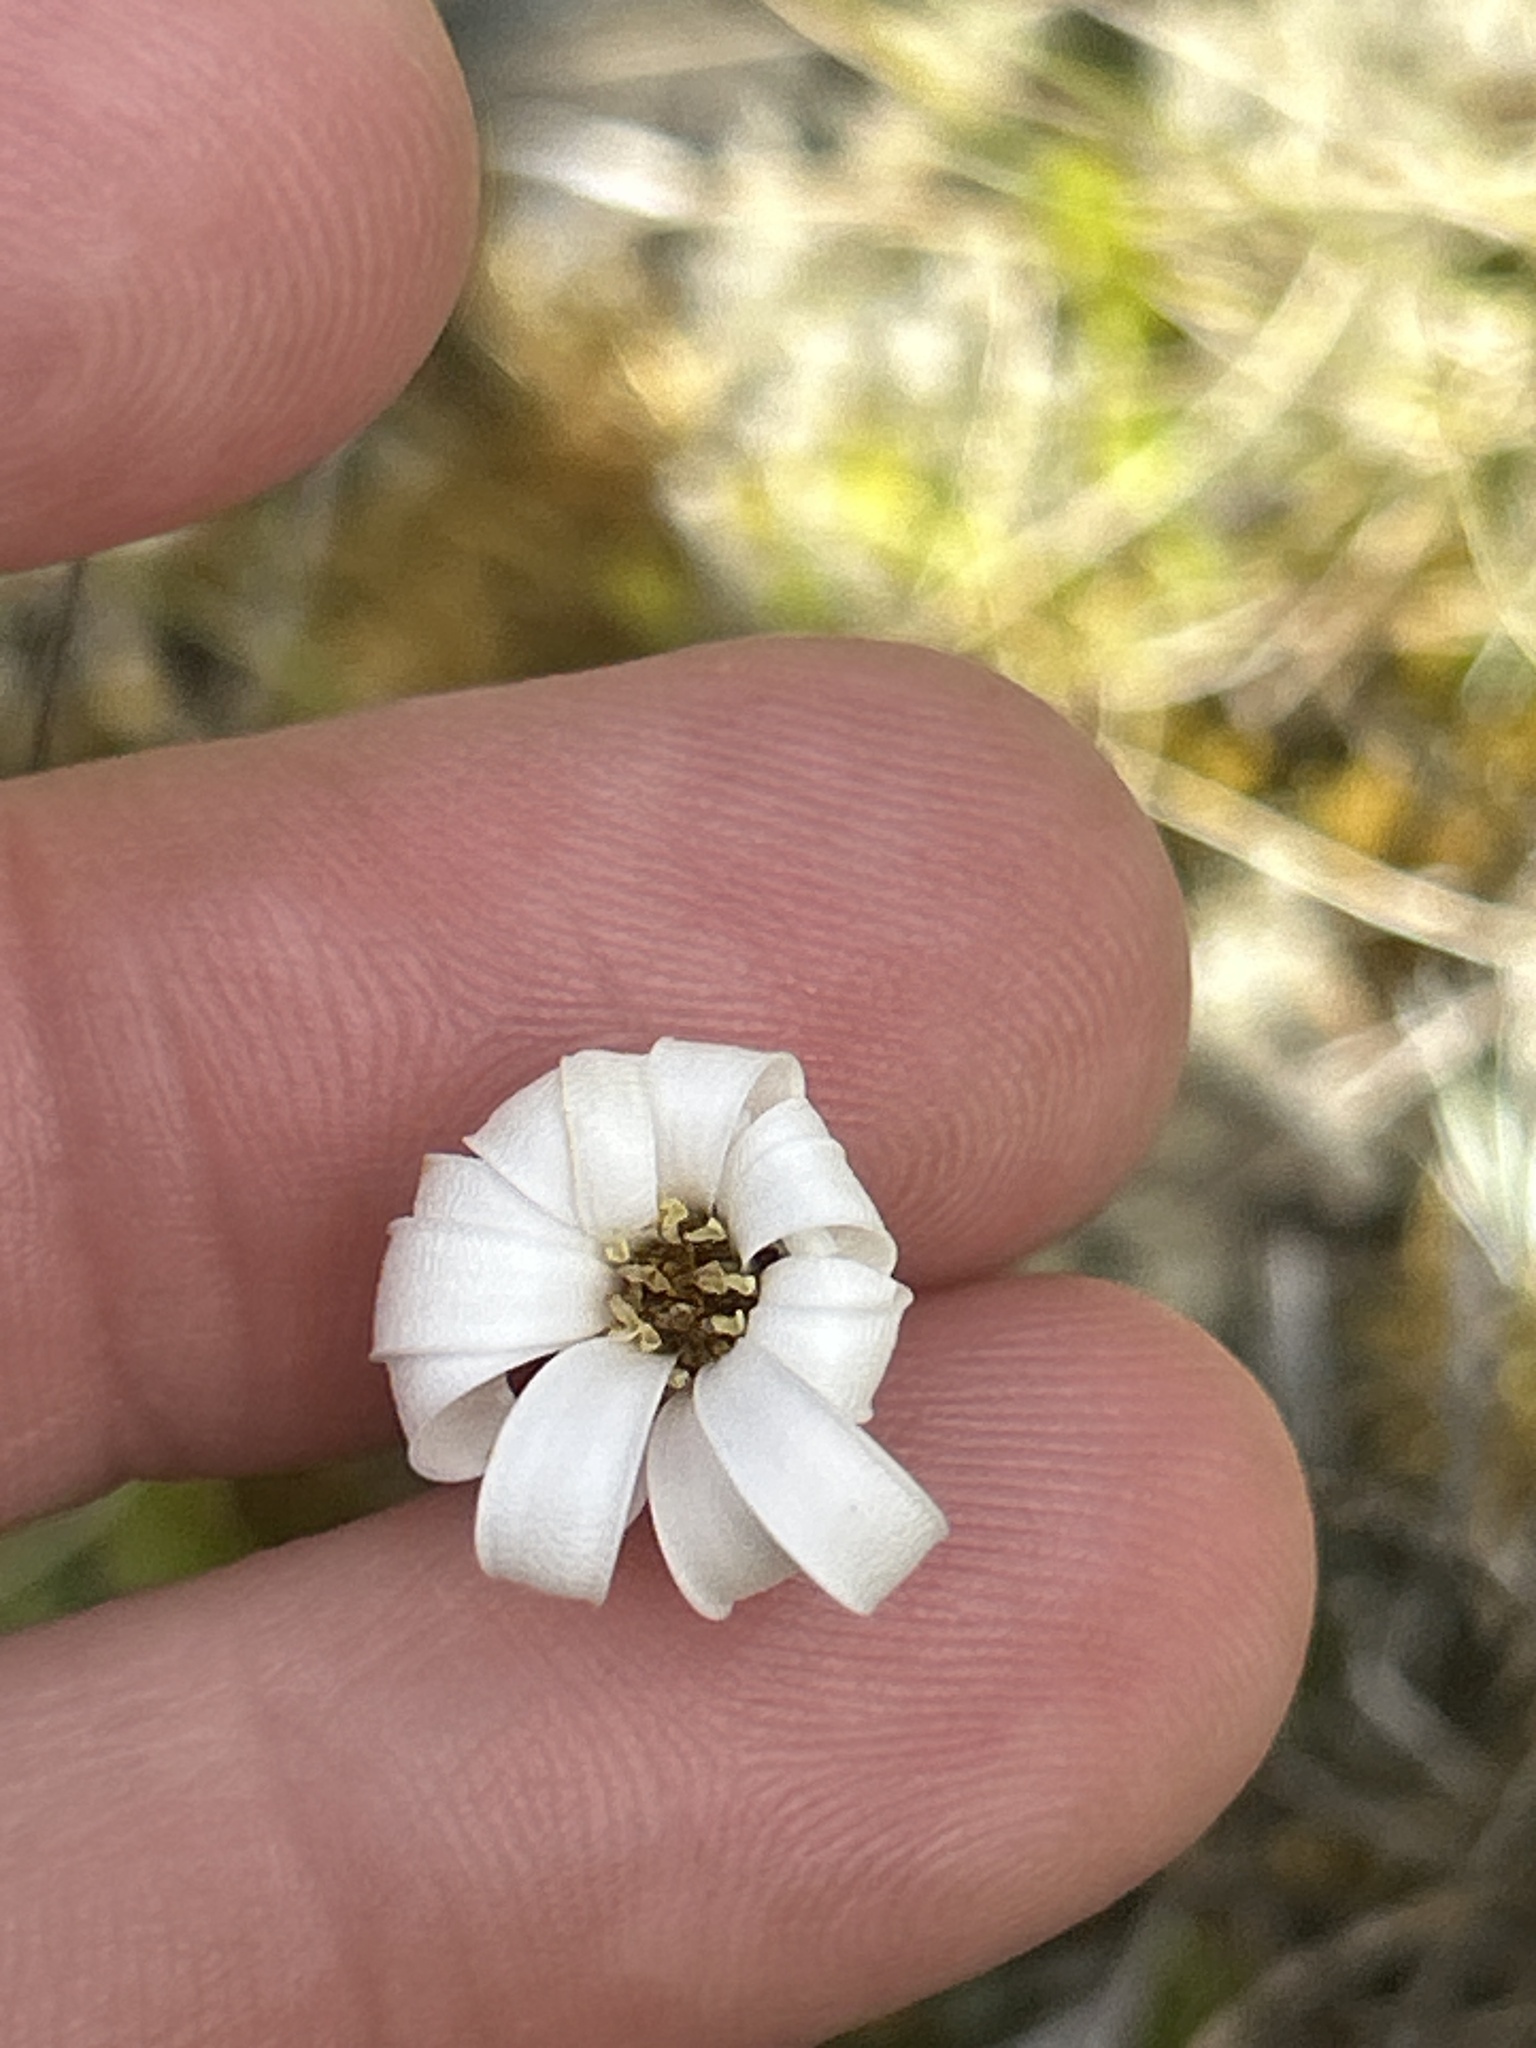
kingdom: Plantae
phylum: Tracheophyta
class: Magnoliopsida
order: Asterales
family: Asteraceae
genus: Celmisia
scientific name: Celmisia gracilenta
